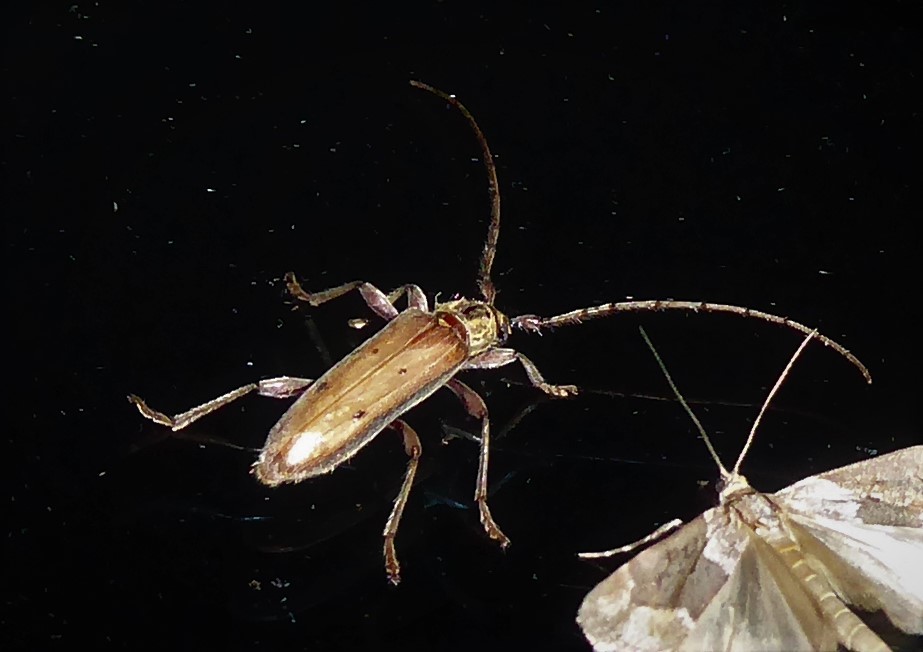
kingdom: Animalia
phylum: Arthropoda
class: Insecta
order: Coleoptera
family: Cerambycidae
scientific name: Cerambycidae
